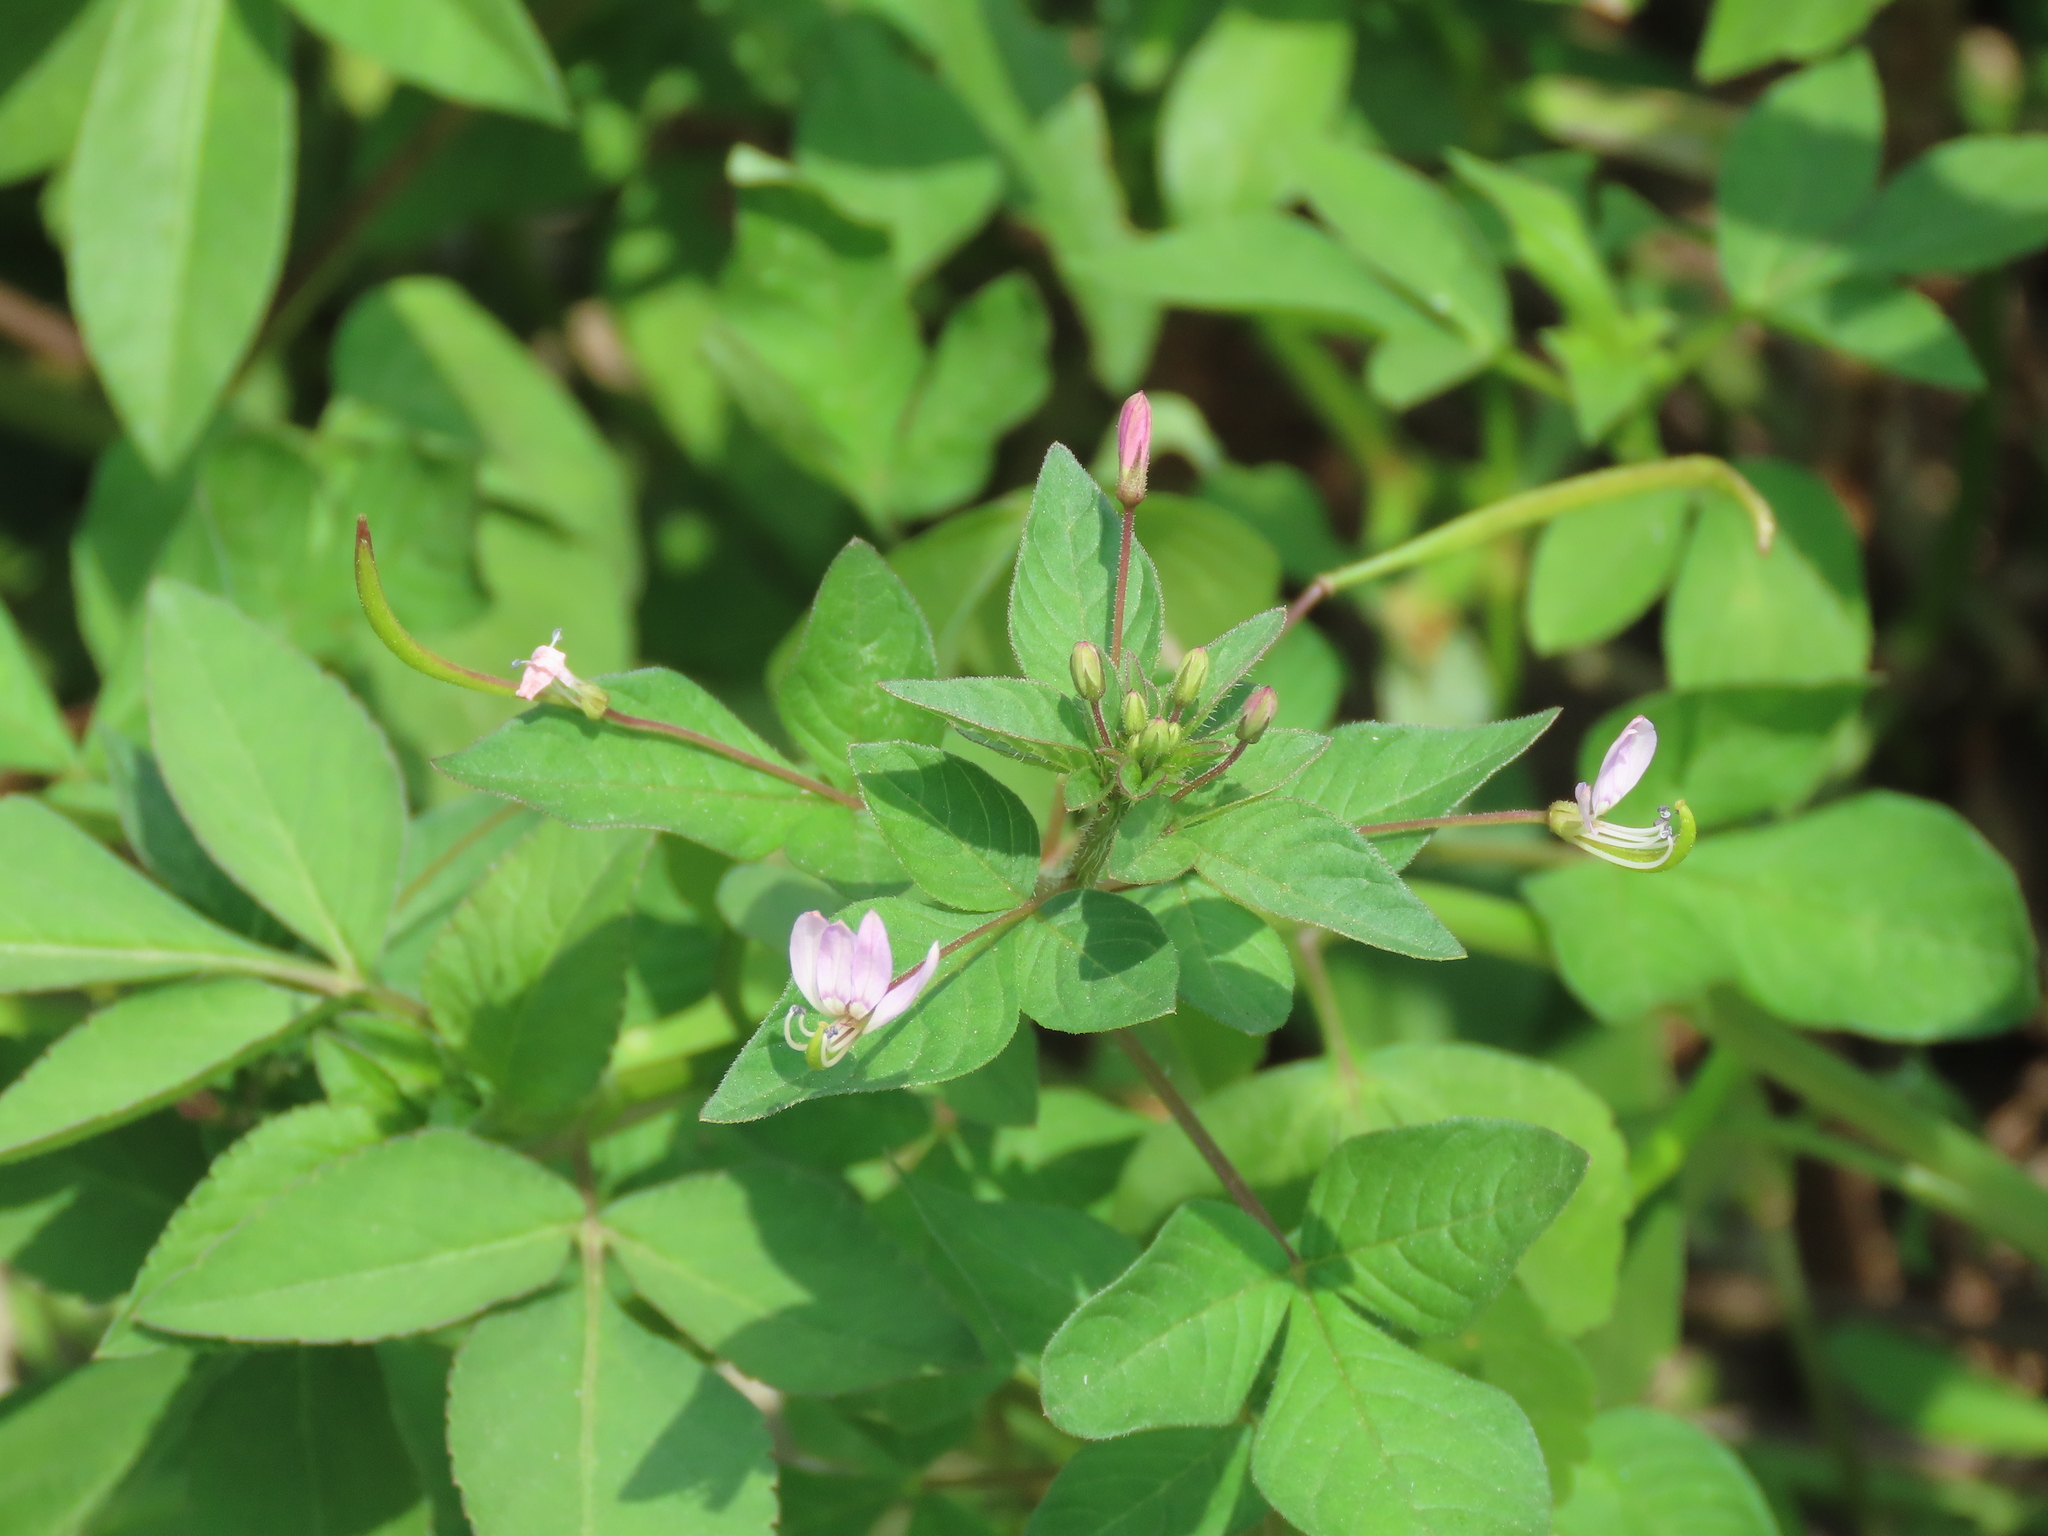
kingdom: Plantae
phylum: Tracheophyta
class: Magnoliopsida
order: Brassicales
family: Cleomaceae
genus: Sieruela
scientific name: Sieruela rutidosperma
